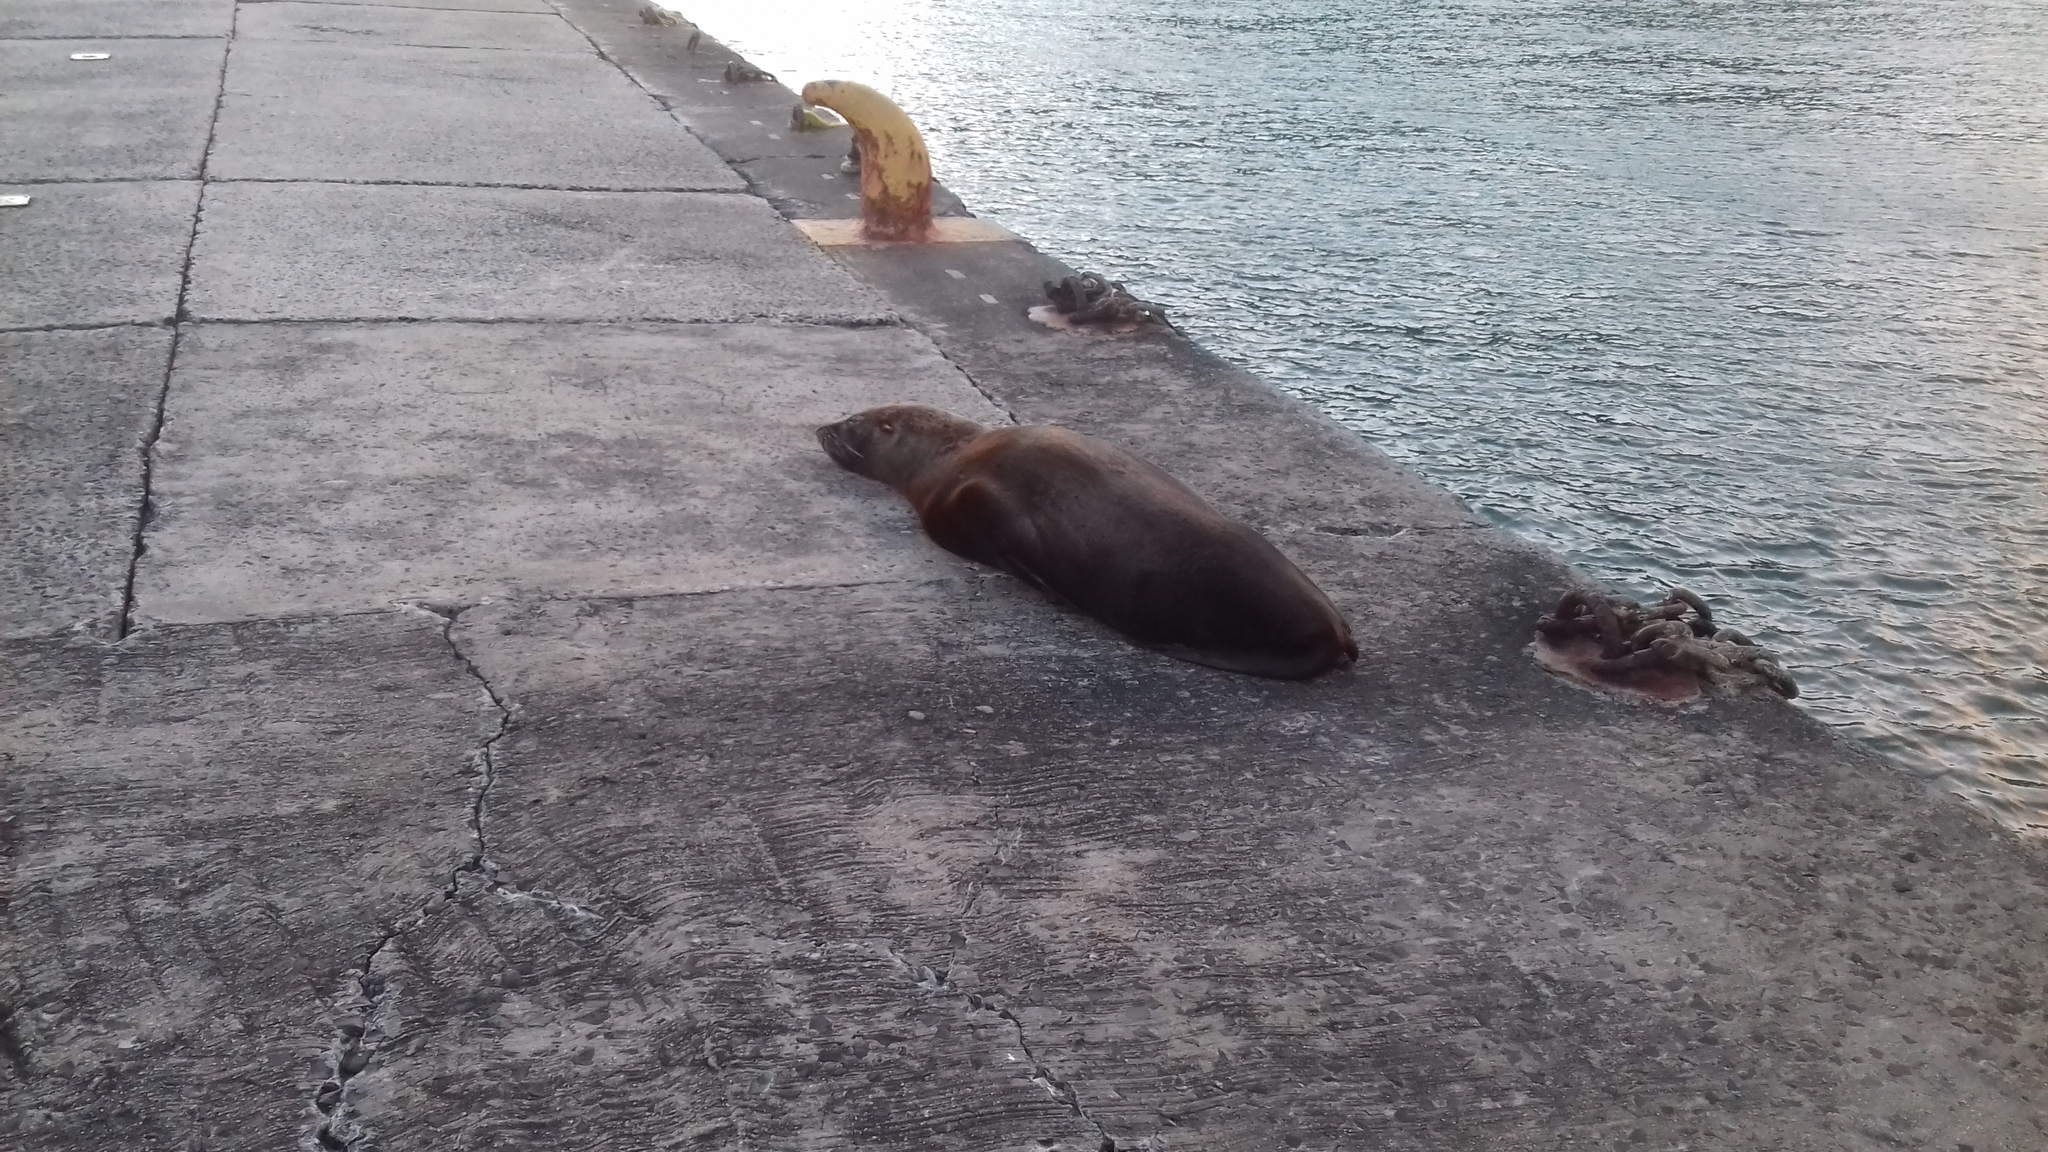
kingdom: Animalia
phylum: Chordata
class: Mammalia
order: Carnivora
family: Otariidae
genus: Arctocephalus
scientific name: Arctocephalus pusillus
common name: Brown fur seal
